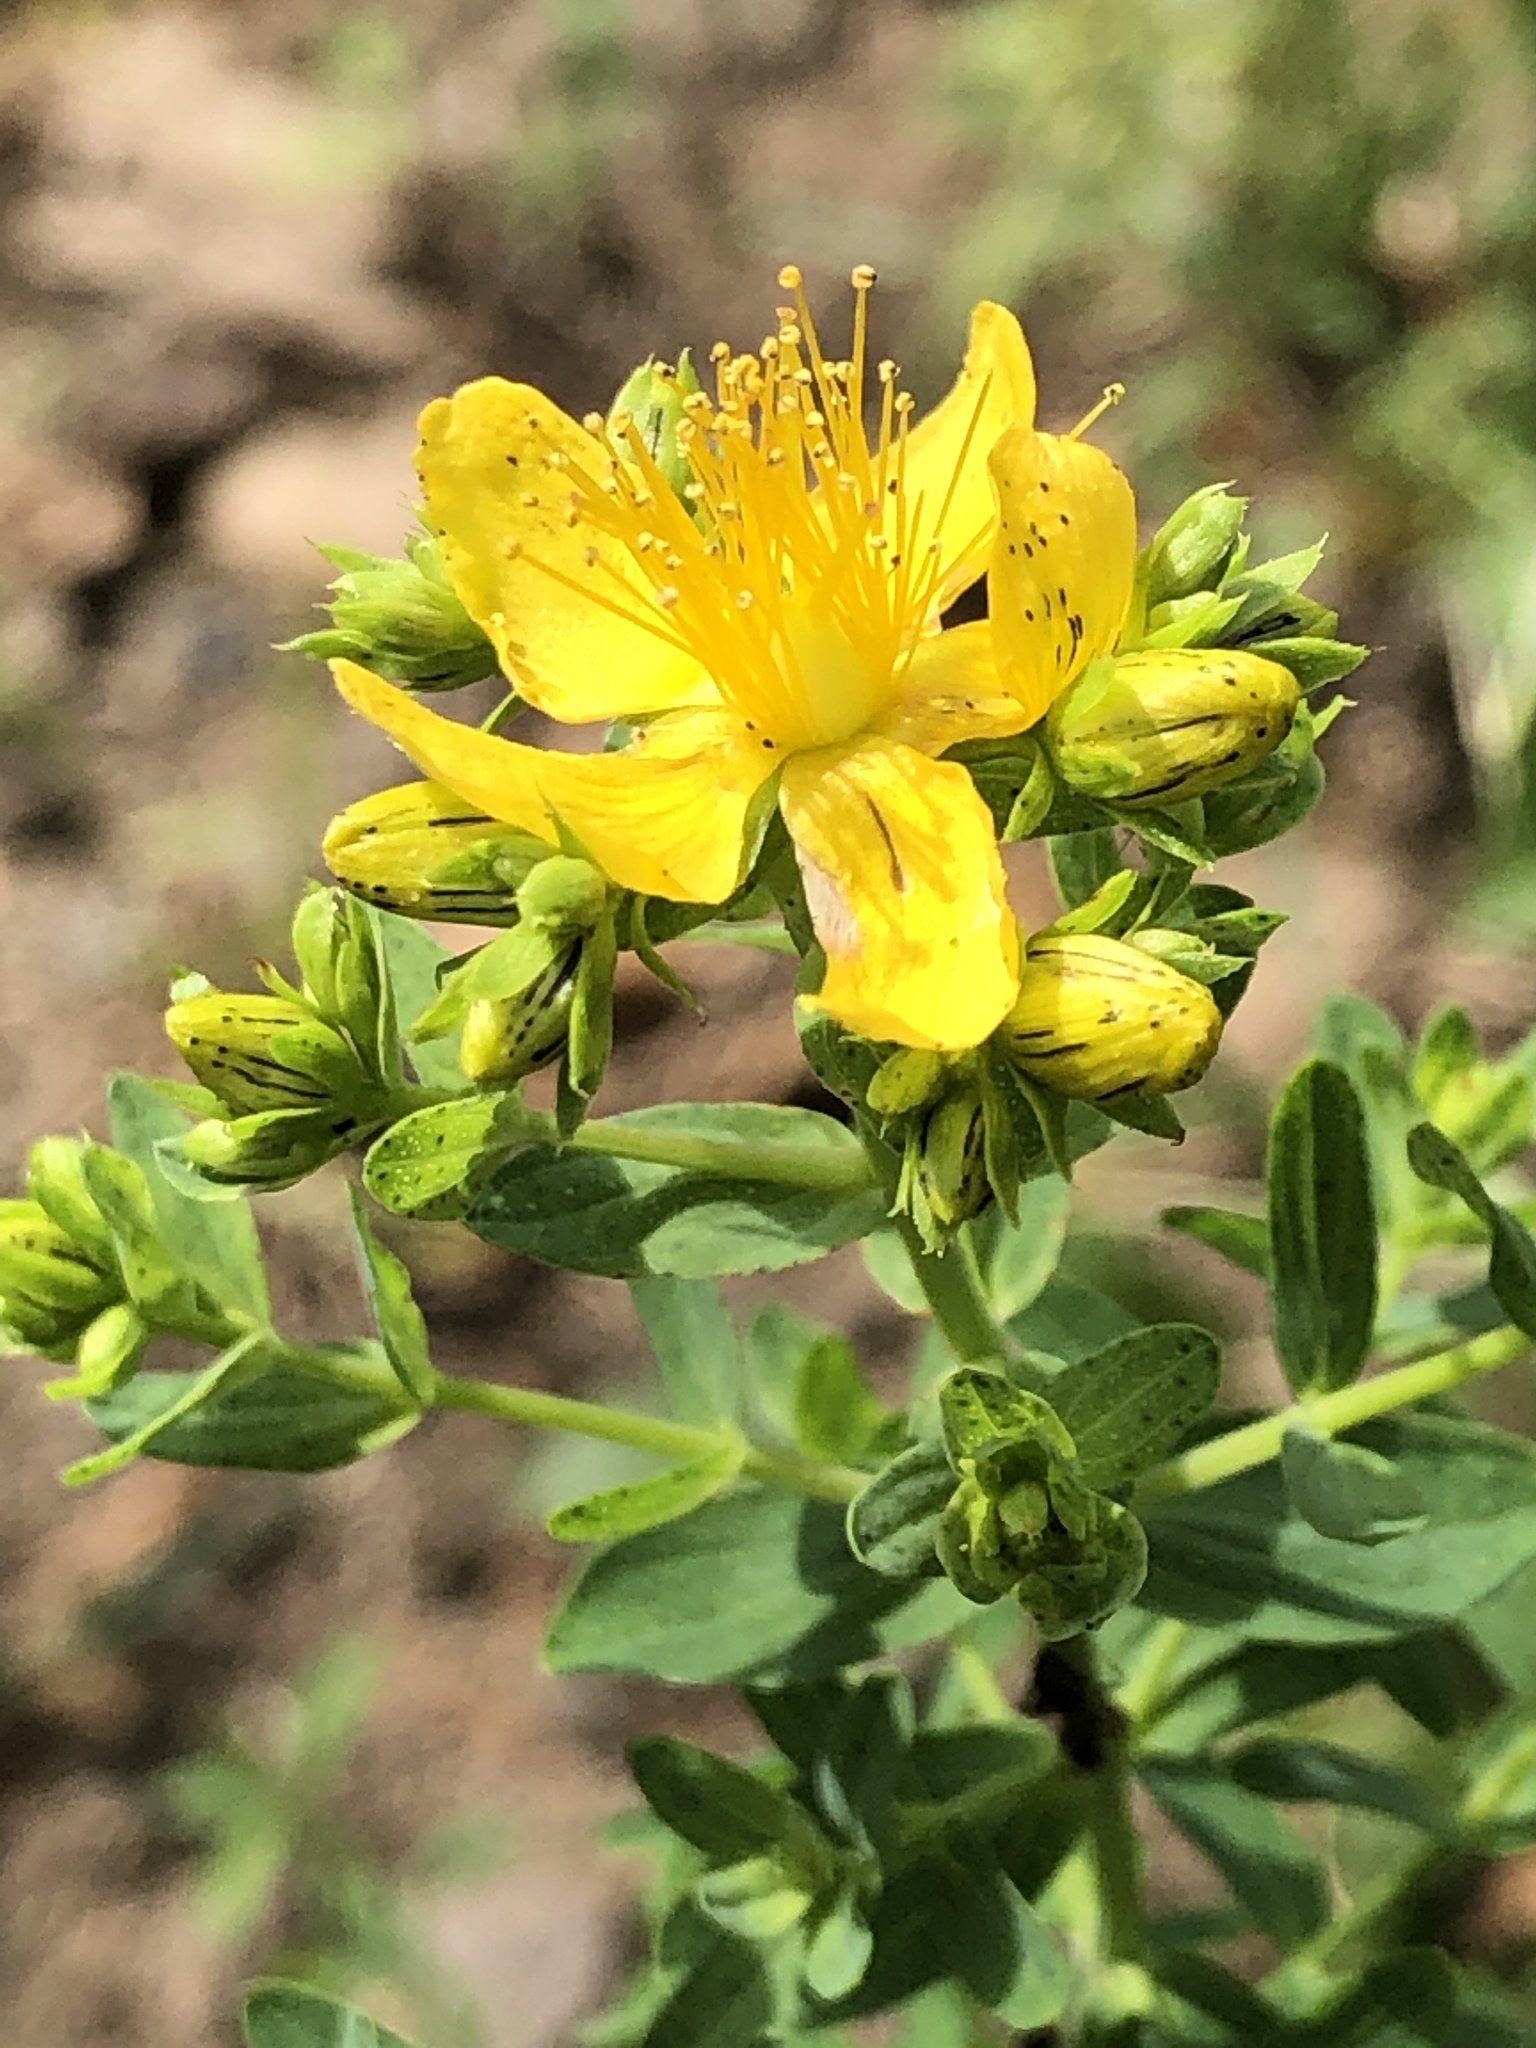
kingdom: Plantae
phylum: Tracheophyta
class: Magnoliopsida
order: Malpighiales
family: Hypericaceae
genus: Hypericum
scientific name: Hypericum perforatum
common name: Common st. johnswort
